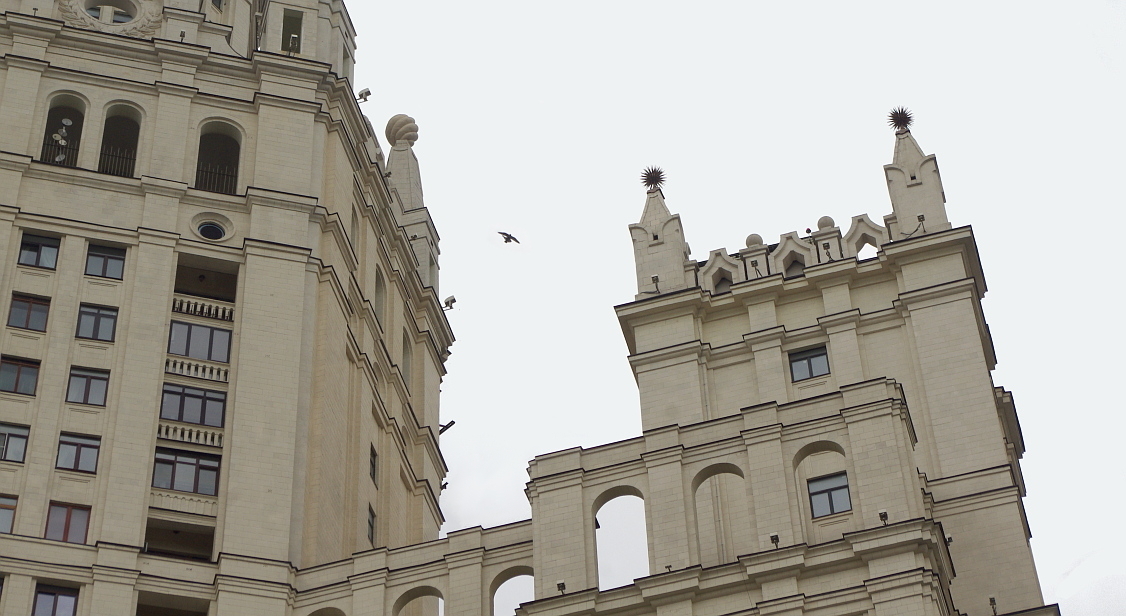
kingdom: Animalia
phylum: Chordata
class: Aves
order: Falconiformes
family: Falconidae
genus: Falco
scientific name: Falco peregrinus
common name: Peregrine falcon
